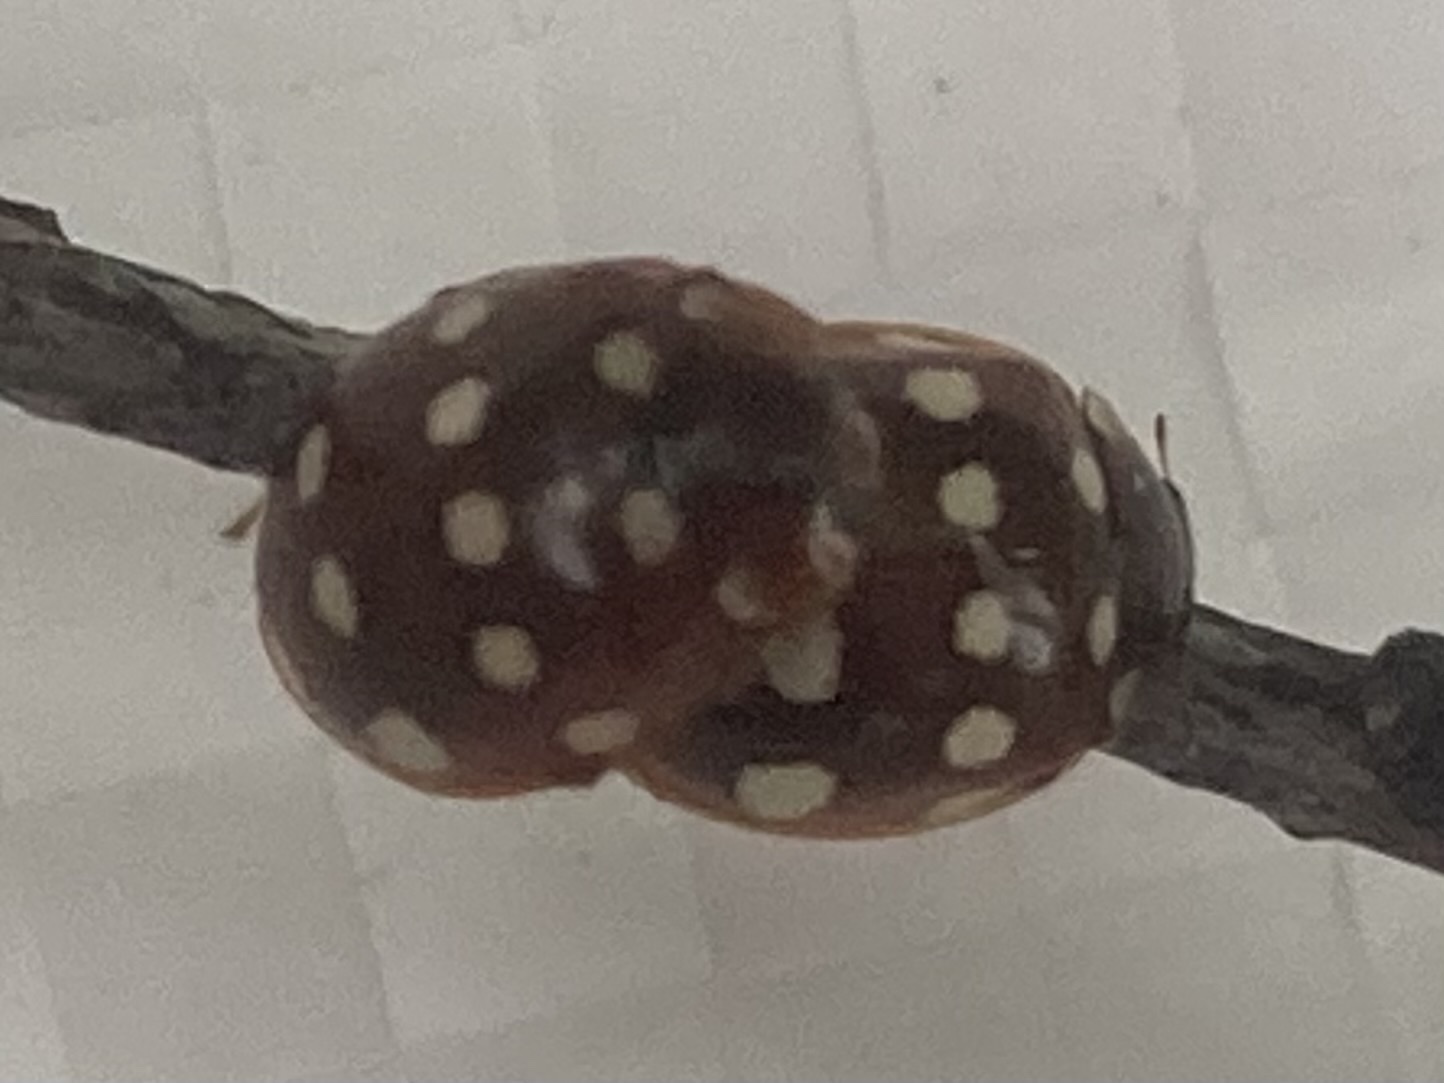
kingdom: Animalia
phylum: Arthropoda
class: Insecta
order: Coleoptera
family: Coccinellidae
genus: Calvia
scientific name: Calvia quatuordecimguttata
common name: Cream-spot ladybird
